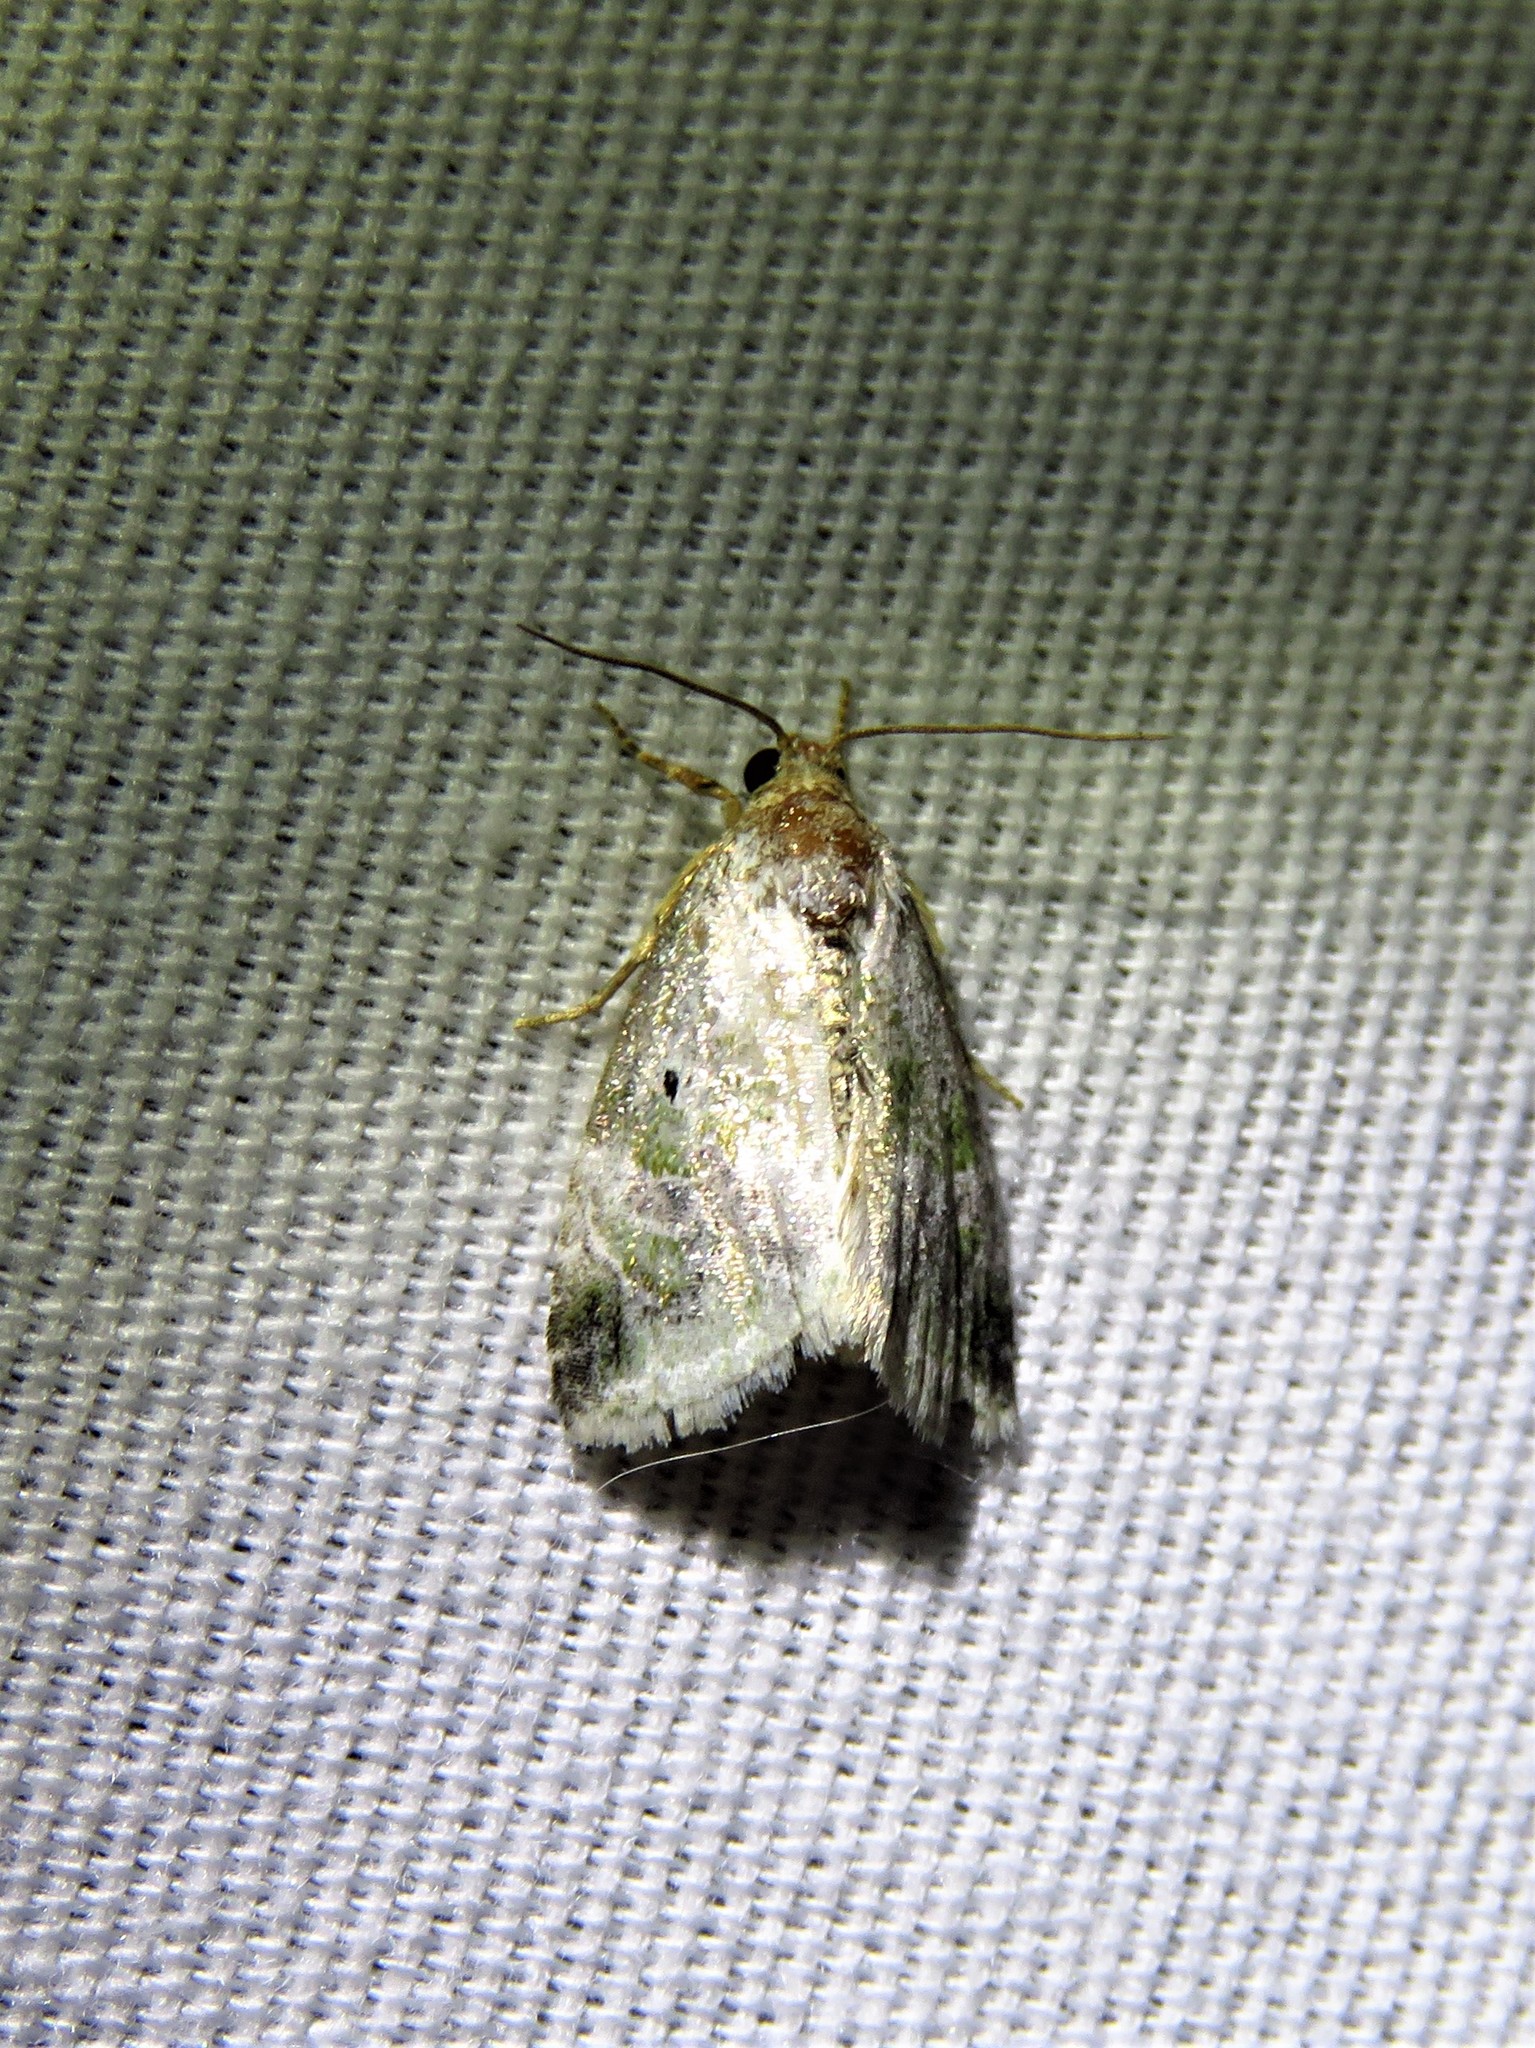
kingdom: Animalia
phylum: Arthropoda
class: Insecta
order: Lepidoptera
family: Noctuidae
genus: Maliattha
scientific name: Maliattha synochitis
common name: Black-dotted glyph
